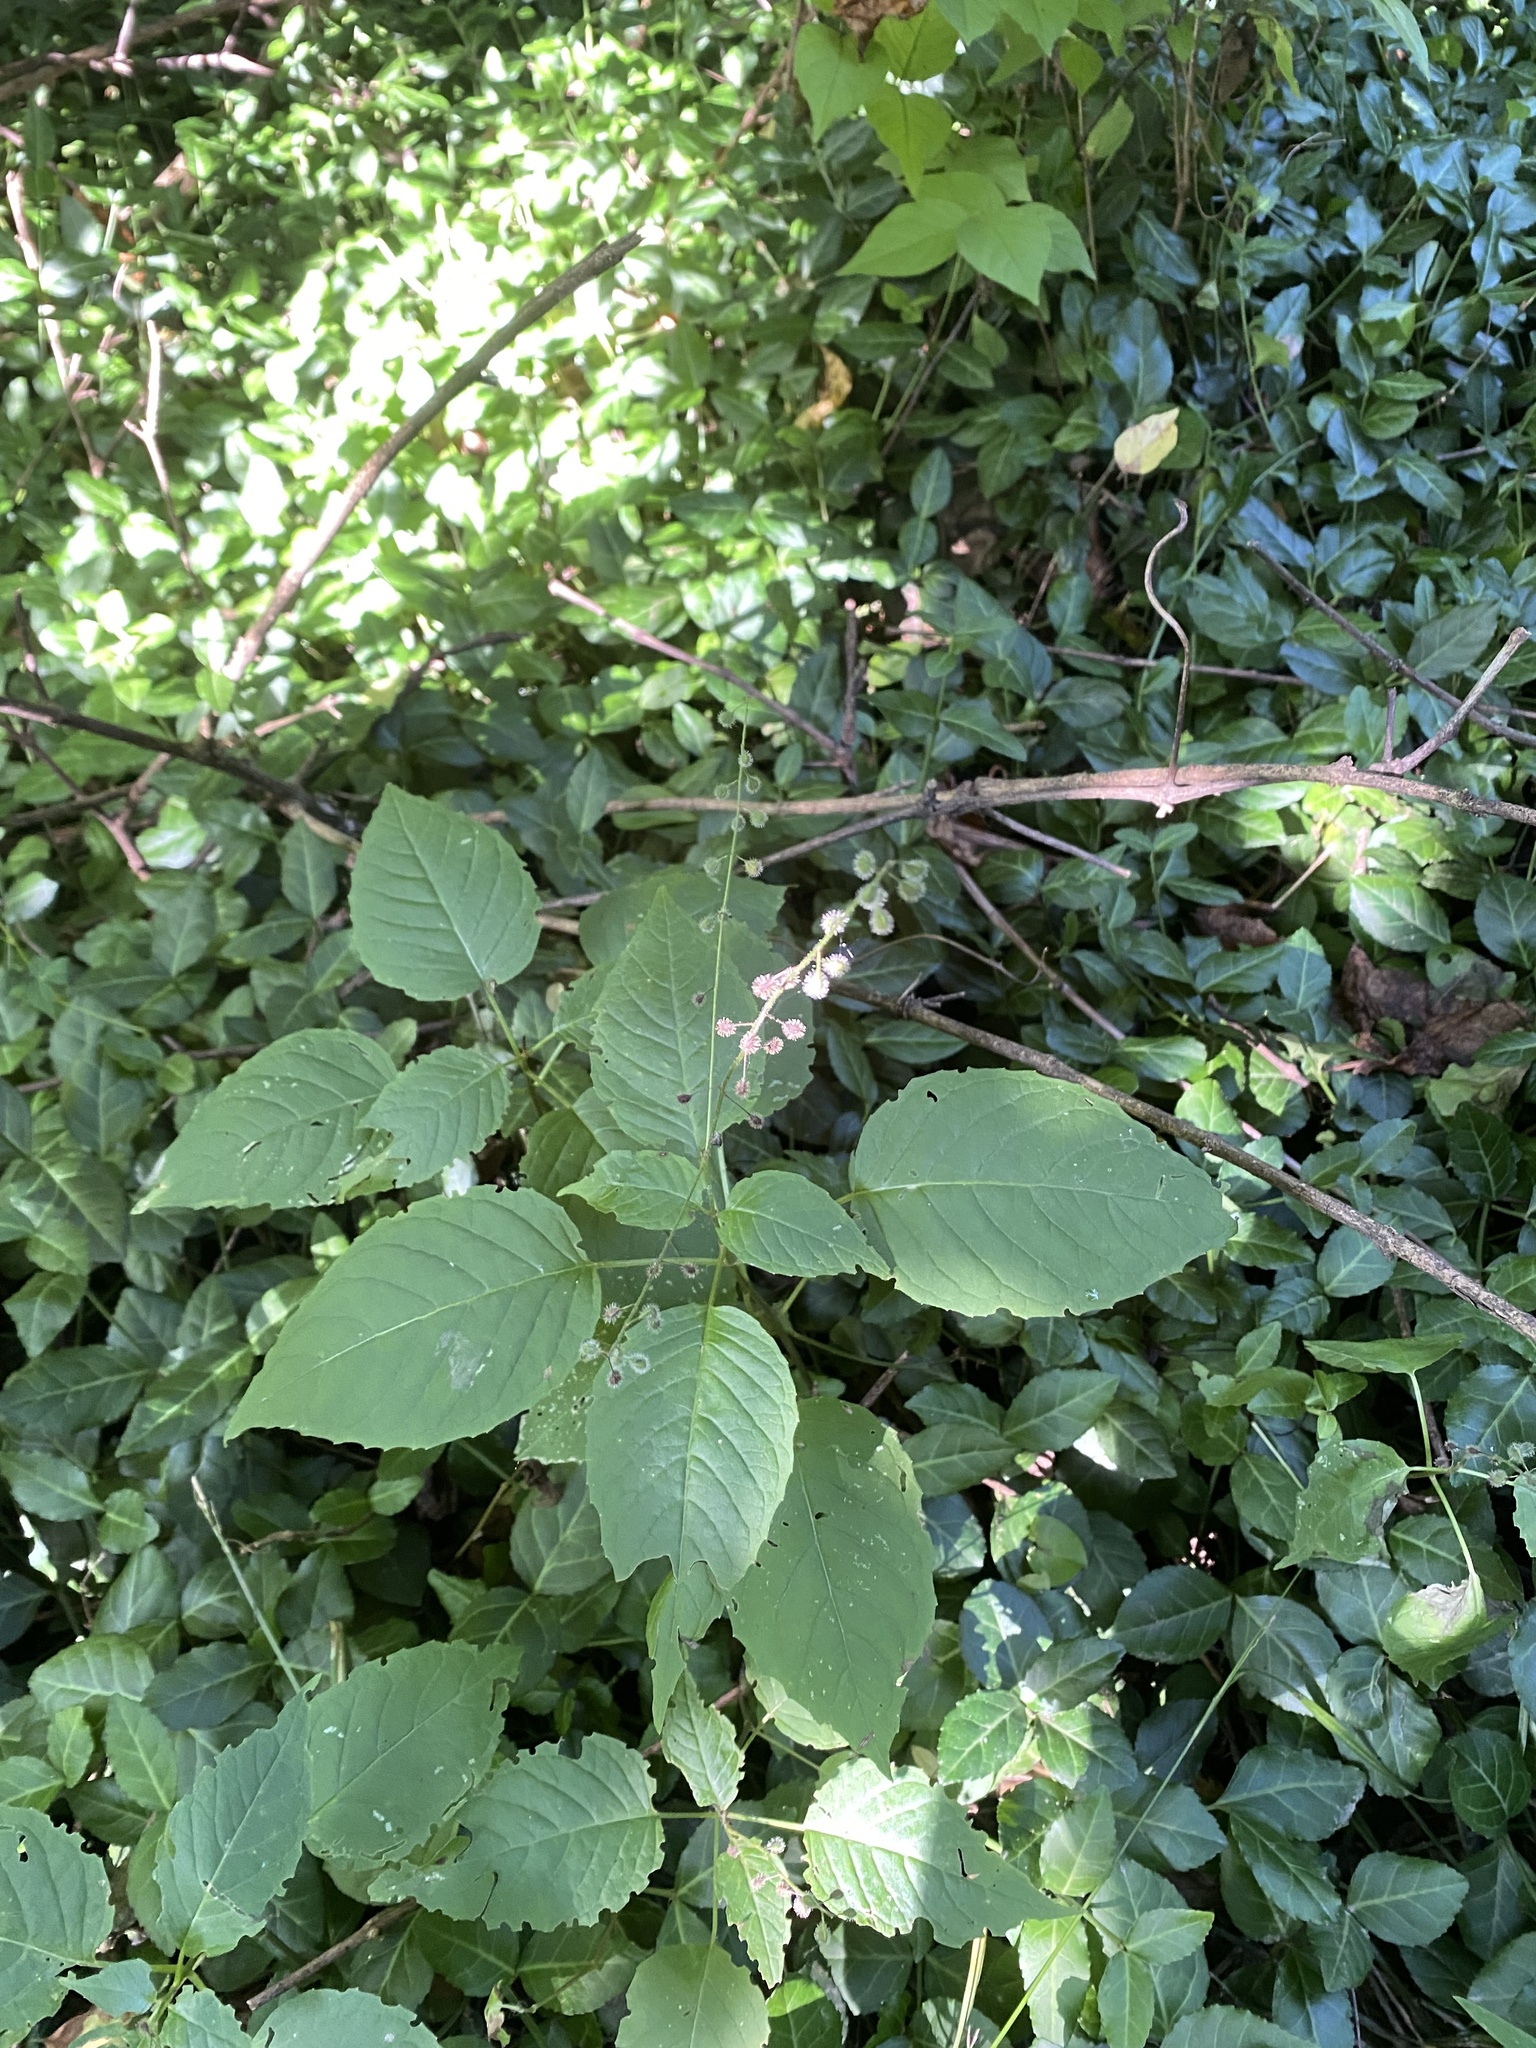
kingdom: Plantae
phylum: Tracheophyta
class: Magnoliopsida
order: Myrtales
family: Onagraceae
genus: Circaea
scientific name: Circaea canadensis
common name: Broad-leaved enchanter's nightshade
